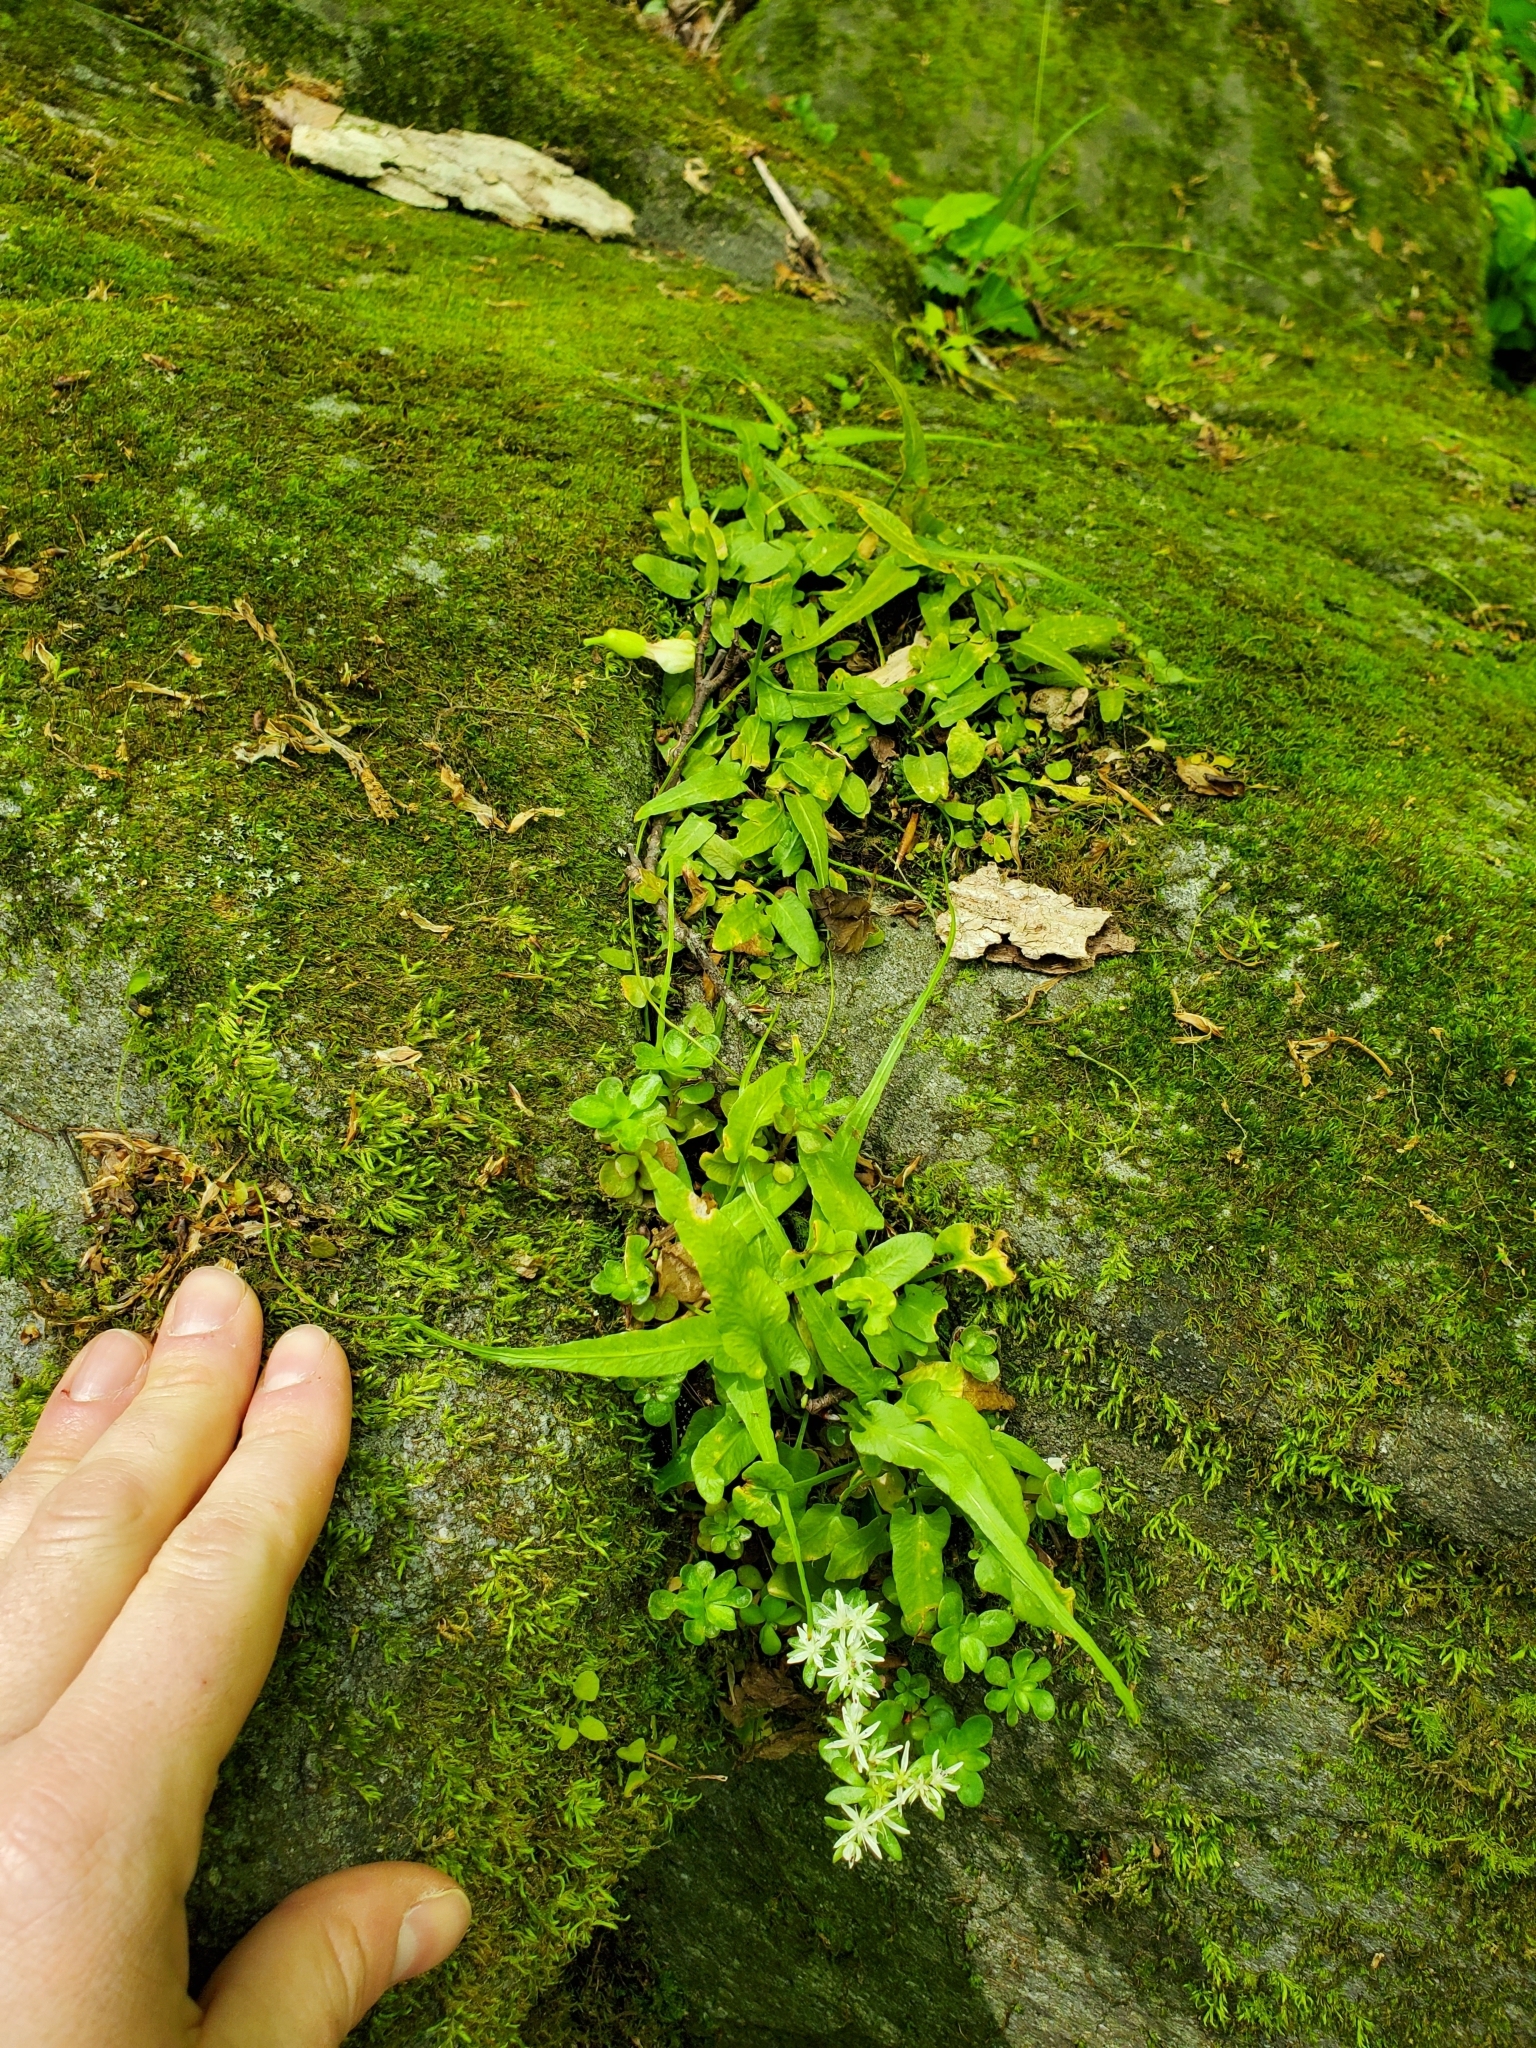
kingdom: Plantae
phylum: Tracheophyta
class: Polypodiopsida
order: Polypodiales
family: Aspleniaceae
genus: Asplenium
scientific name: Asplenium rhizophyllum
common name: Walking fern
